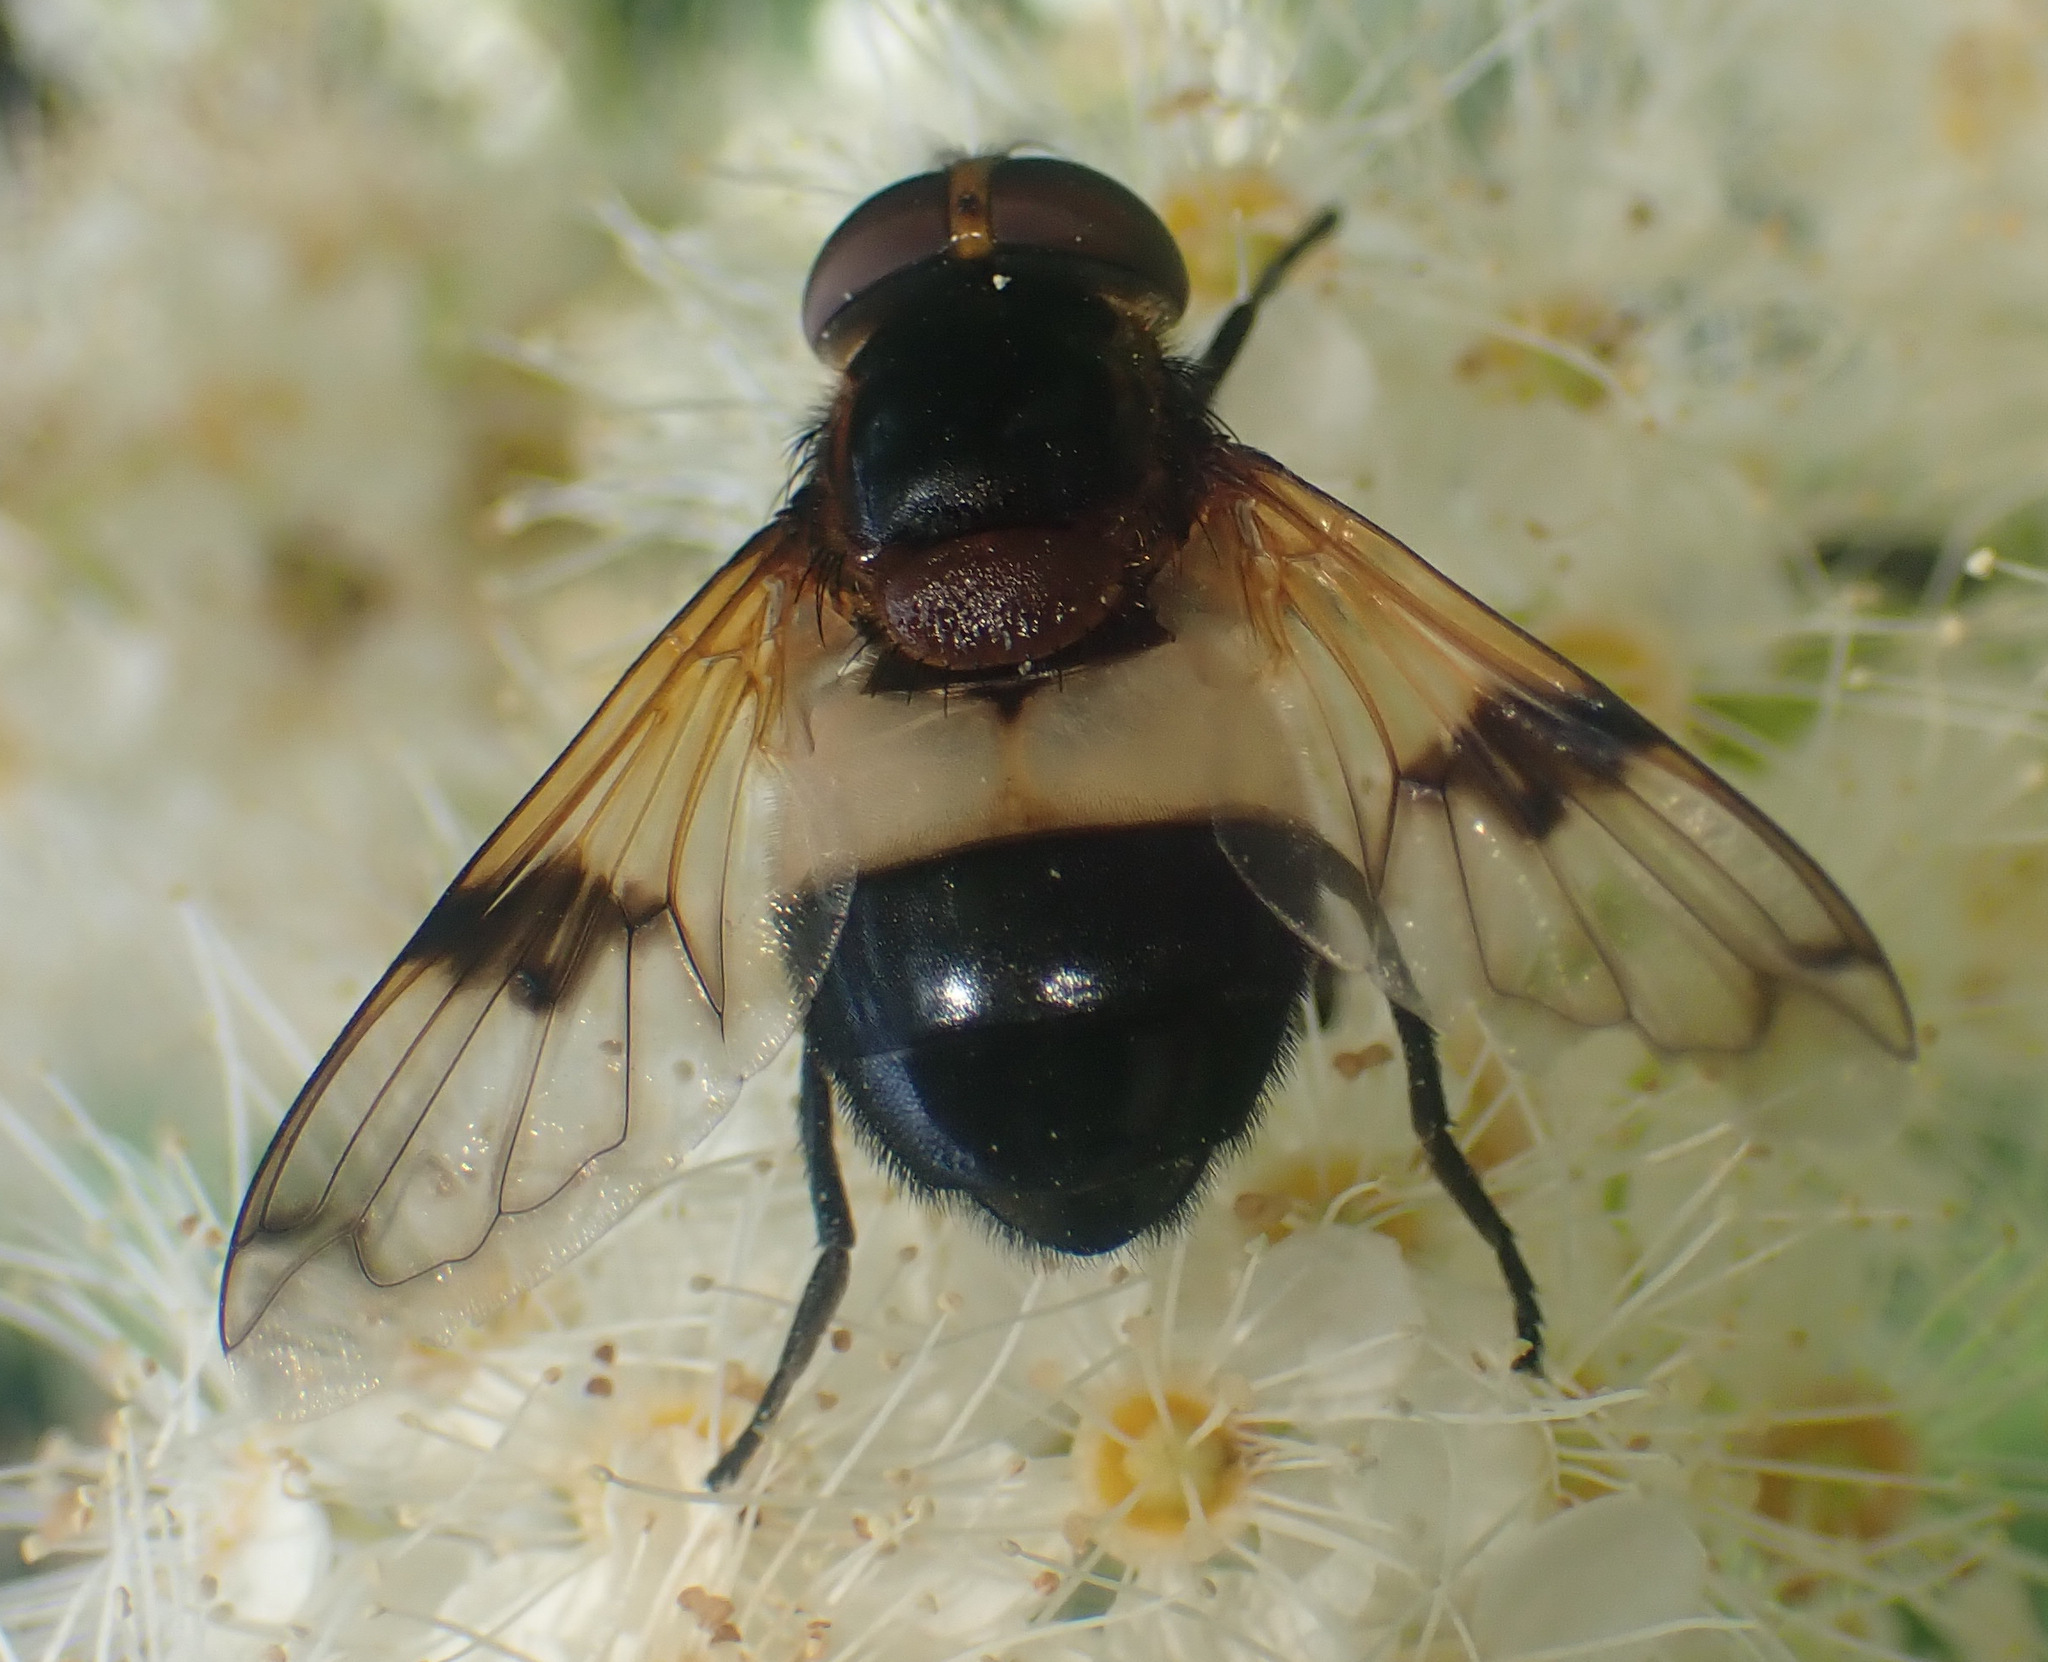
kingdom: Animalia
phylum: Arthropoda
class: Insecta
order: Diptera
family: Syrphidae
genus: Volucella
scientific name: Volucella pellucens
